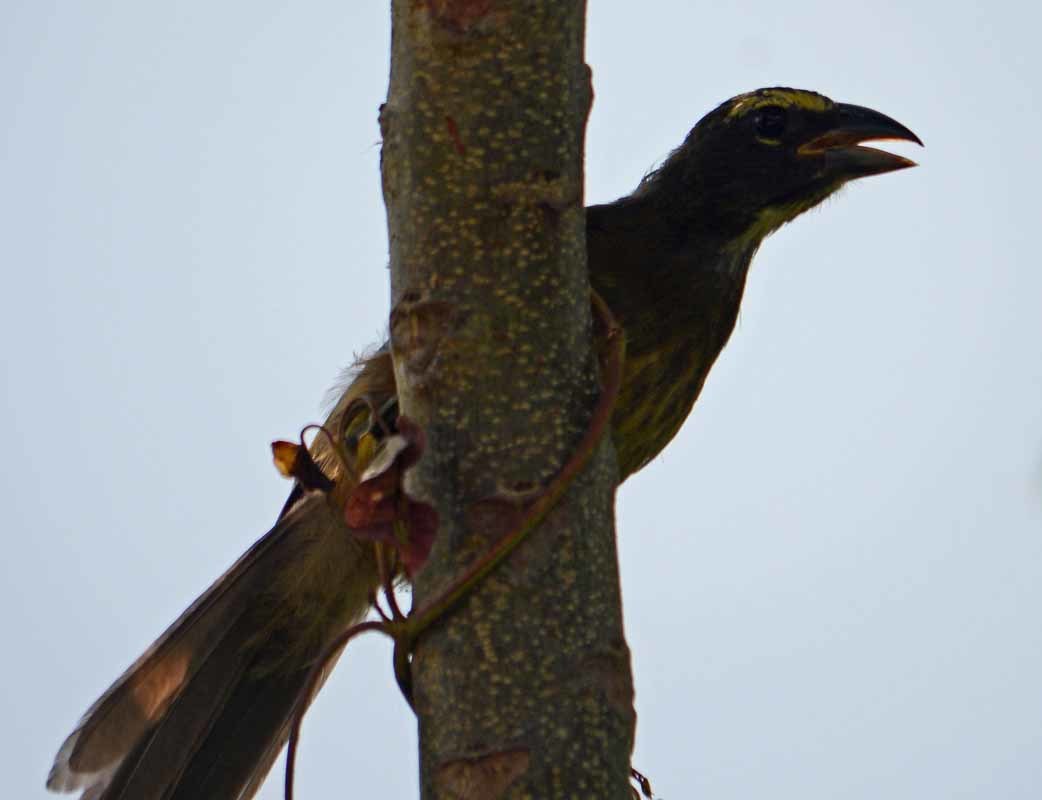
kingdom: Animalia
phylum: Chordata
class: Aves
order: Passeriformes
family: Thraupidae
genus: Saltator
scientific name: Saltator grandis
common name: Cinnamon-bellied saltator
